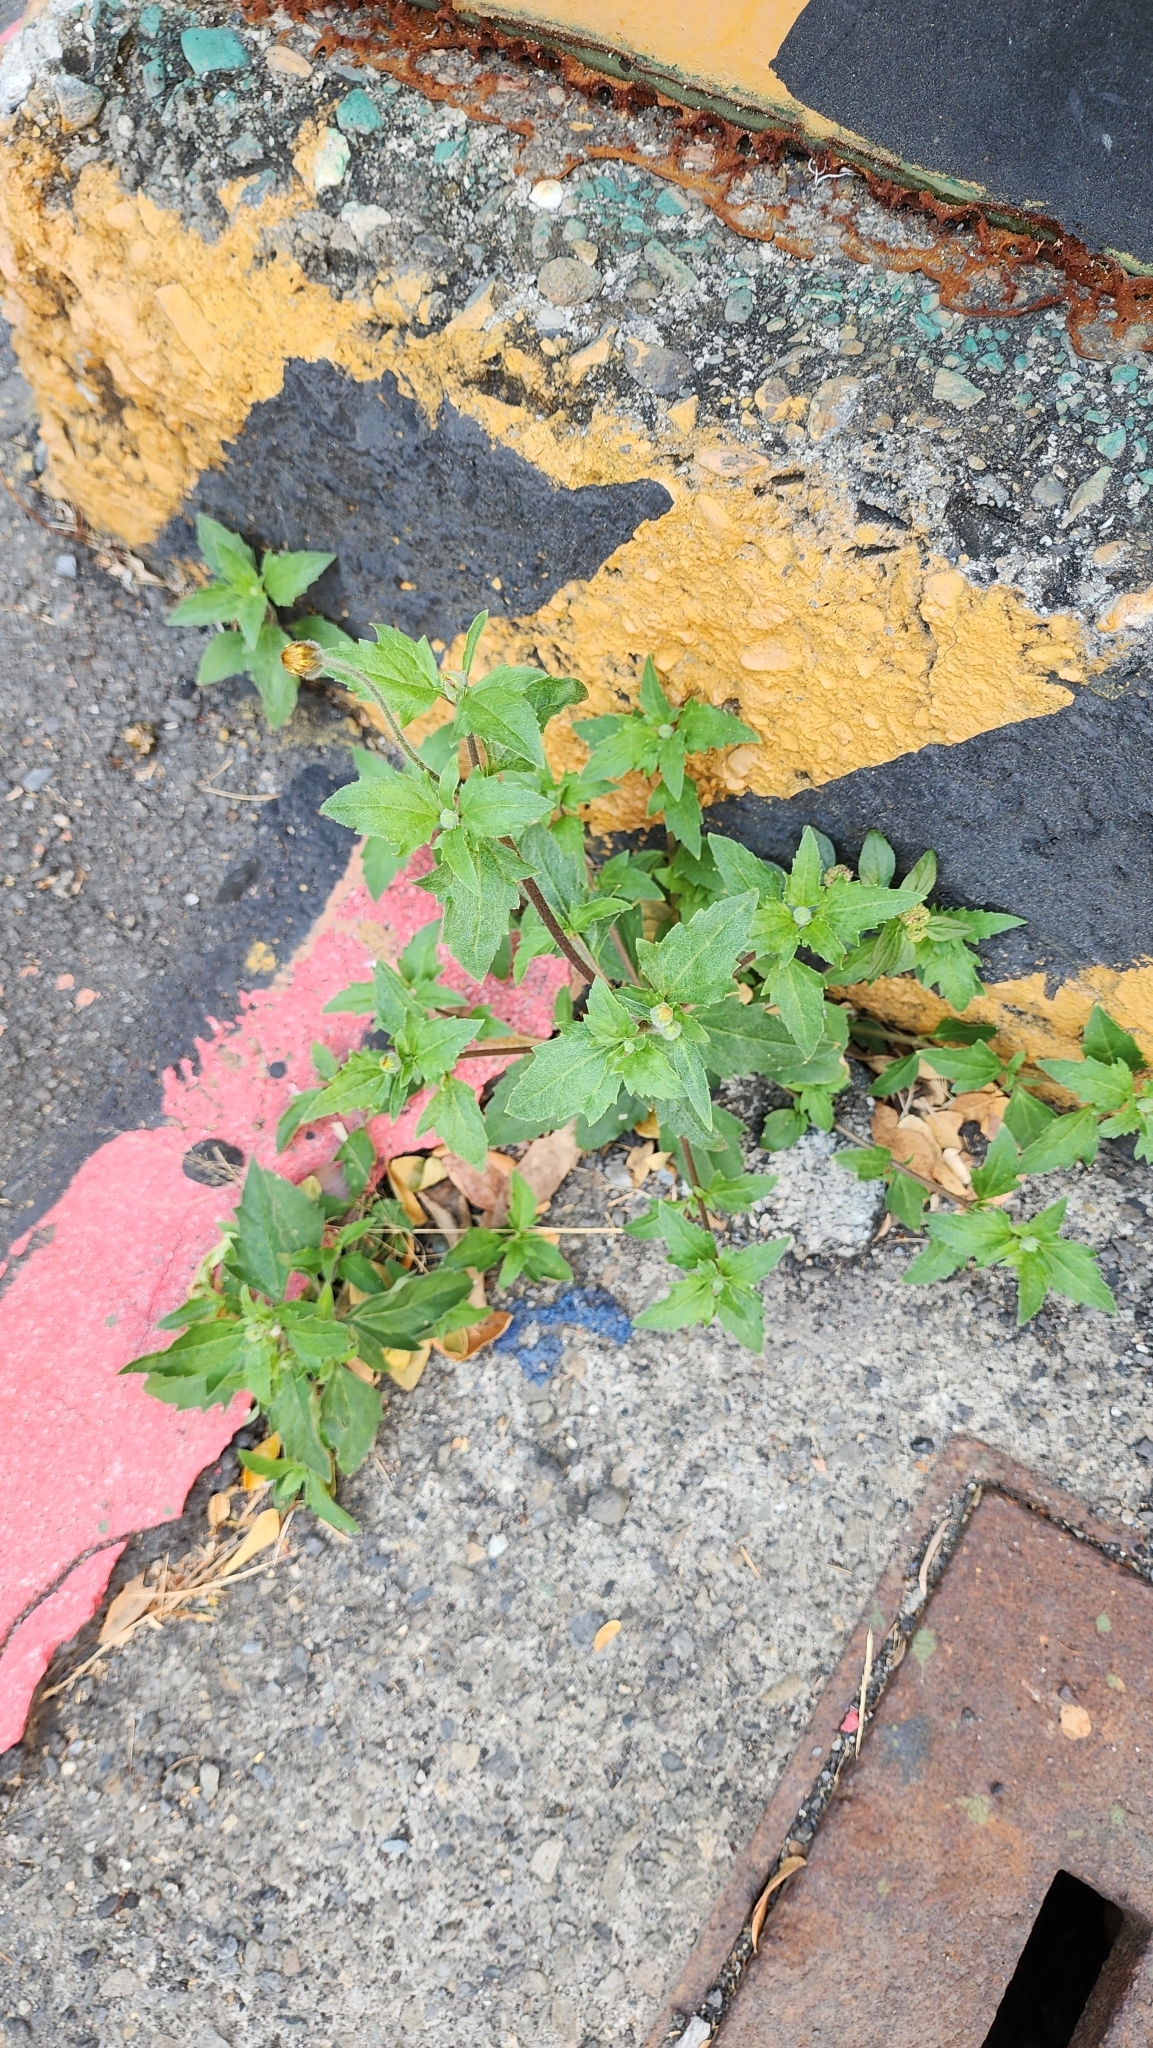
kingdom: Plantae
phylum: Tracheophyta
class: Magnoliopsida
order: Asterales
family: Asteraceae
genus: Tridax
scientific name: Tridax procumbens
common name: Coatbuttons
